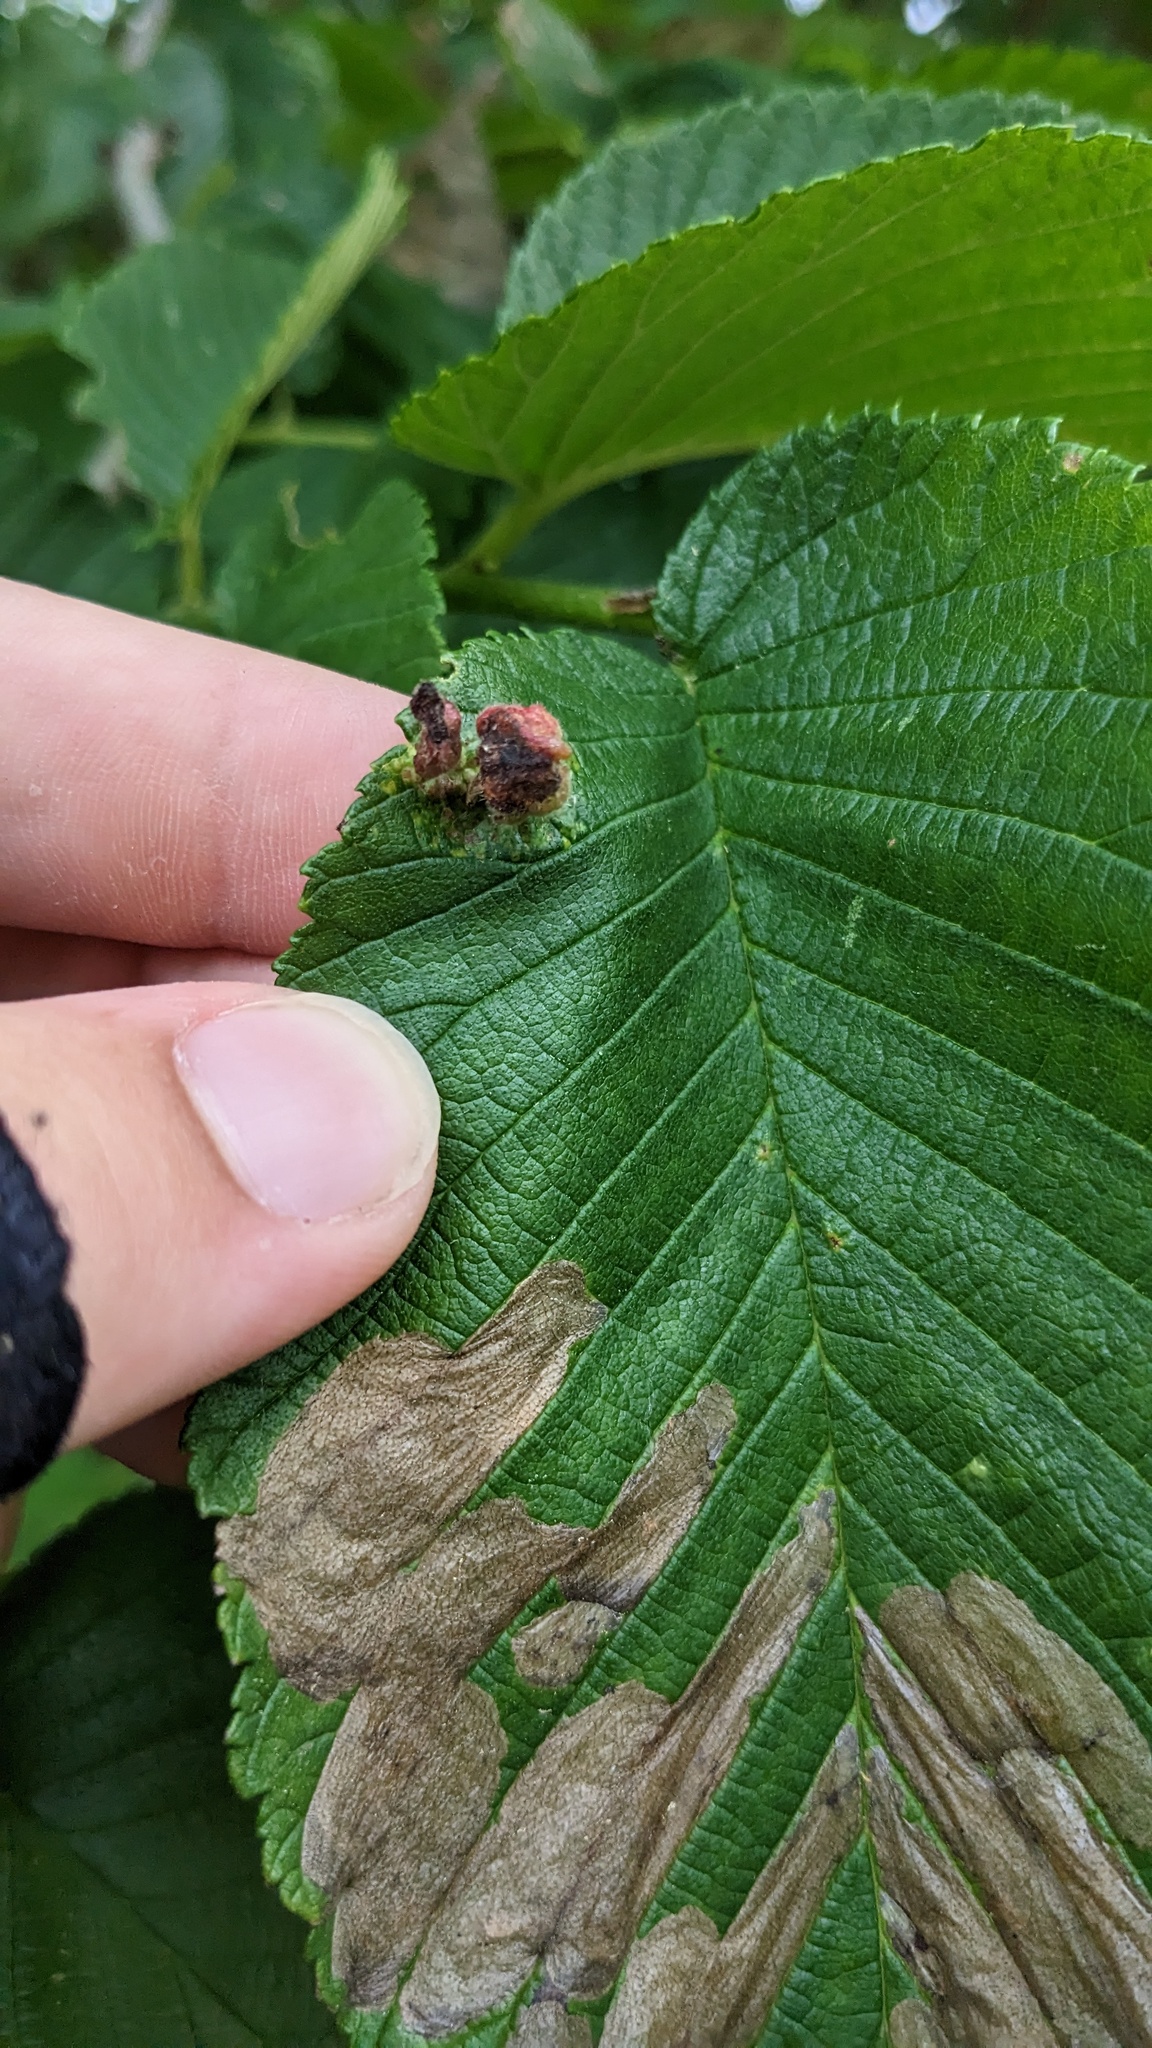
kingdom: Animalia
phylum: Arthropoda
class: Insecta
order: Hemiptera
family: Aphididae
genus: Tetraneura
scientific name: Tetraneura nigriabdominalis
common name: Aphid
